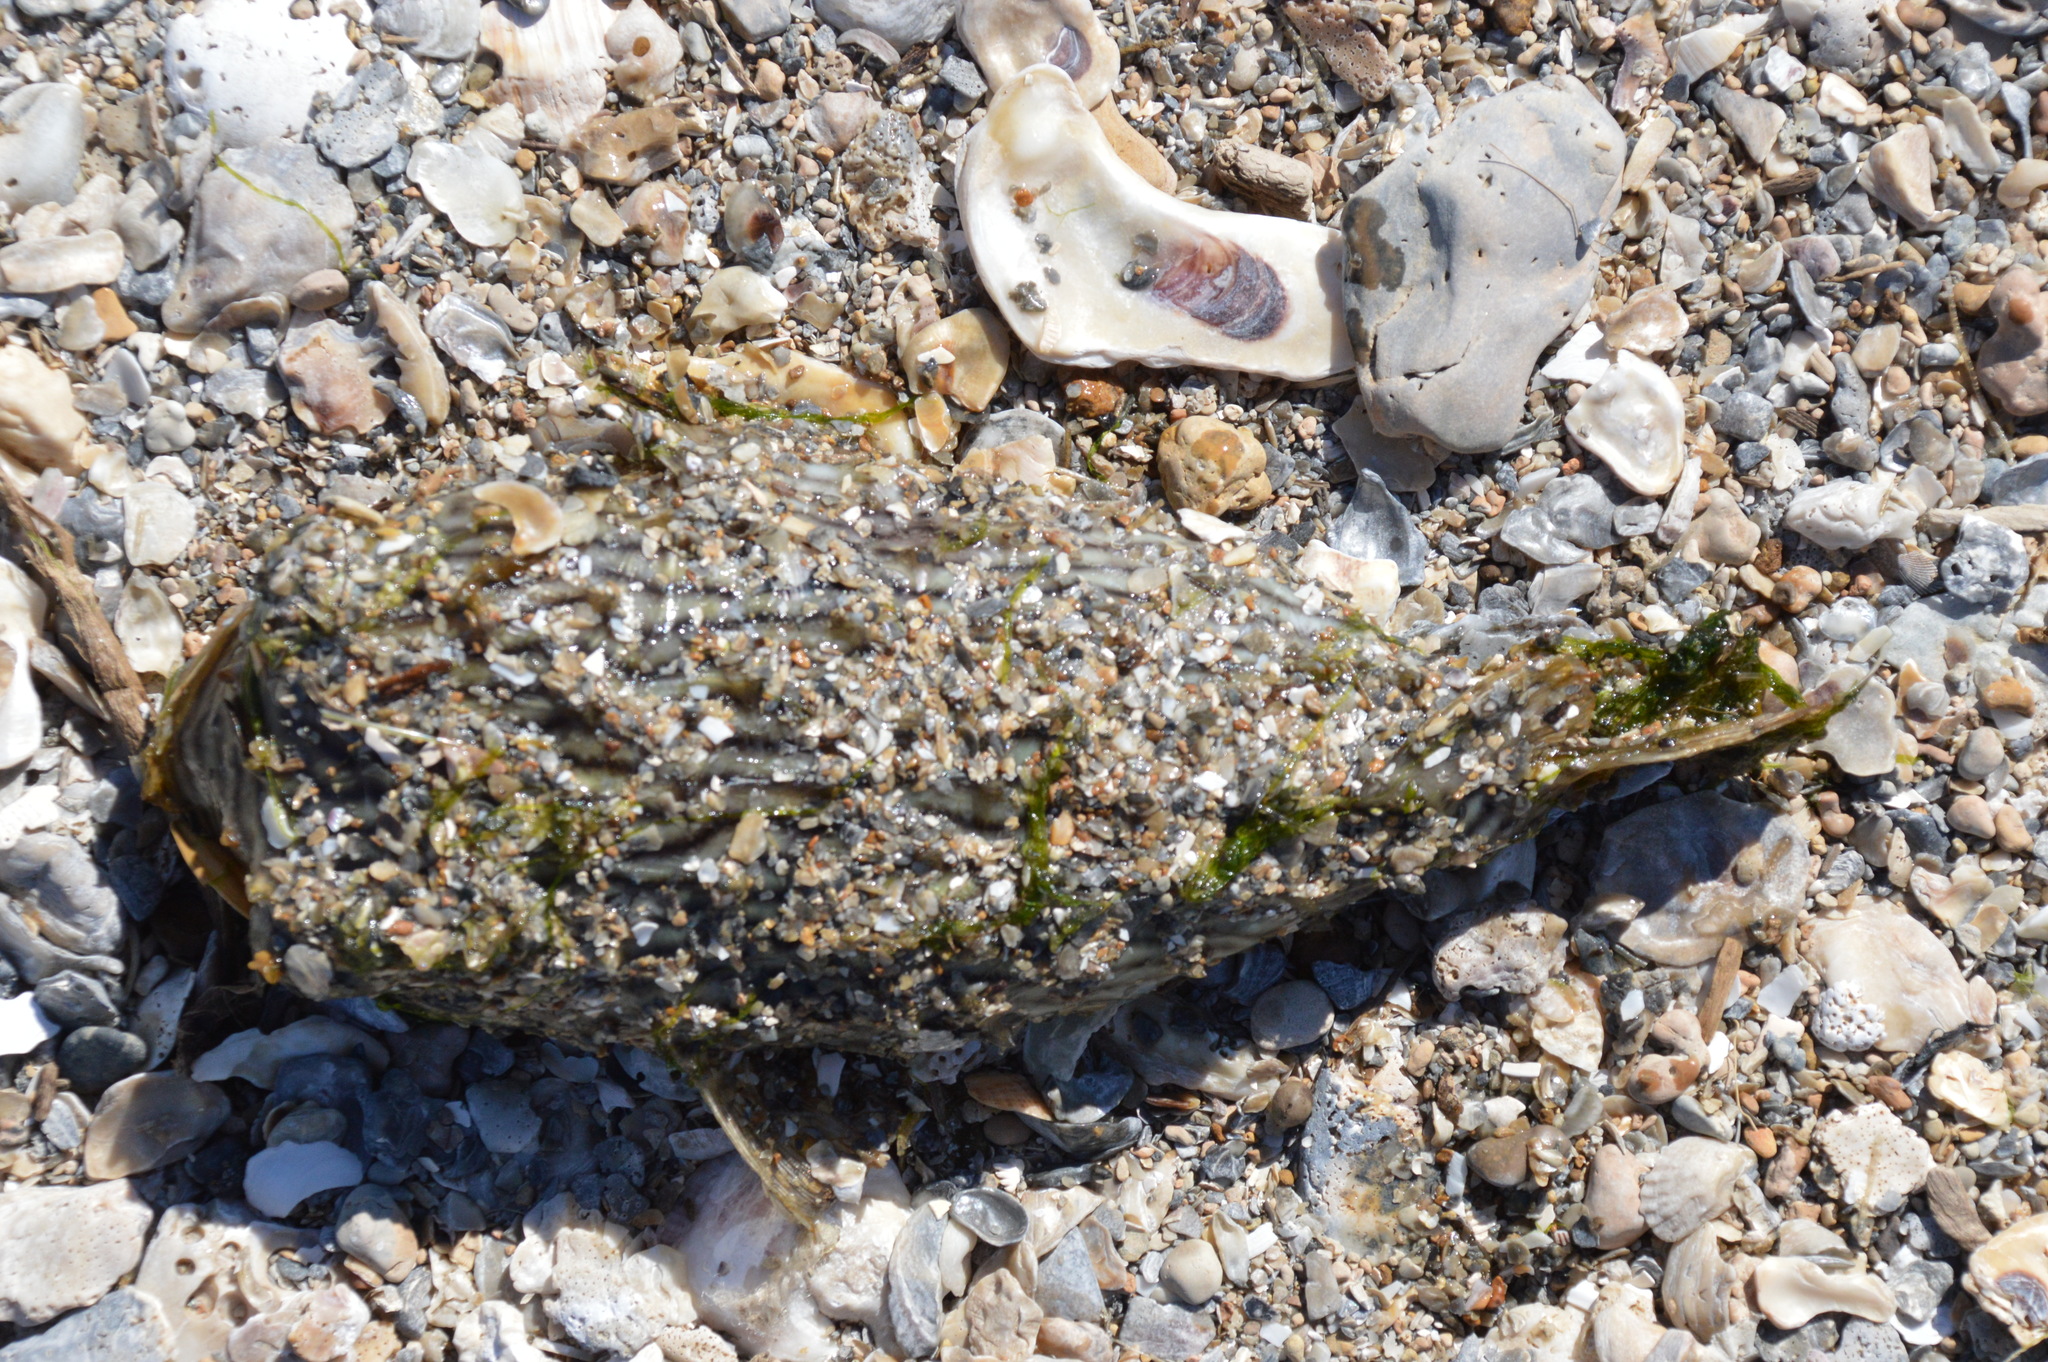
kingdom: Animalia
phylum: Chordata
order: Tetraodontiformes
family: Diodontidae
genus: Chilomycterus
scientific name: Chilomycterus schoepfii
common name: Striped burrfish
